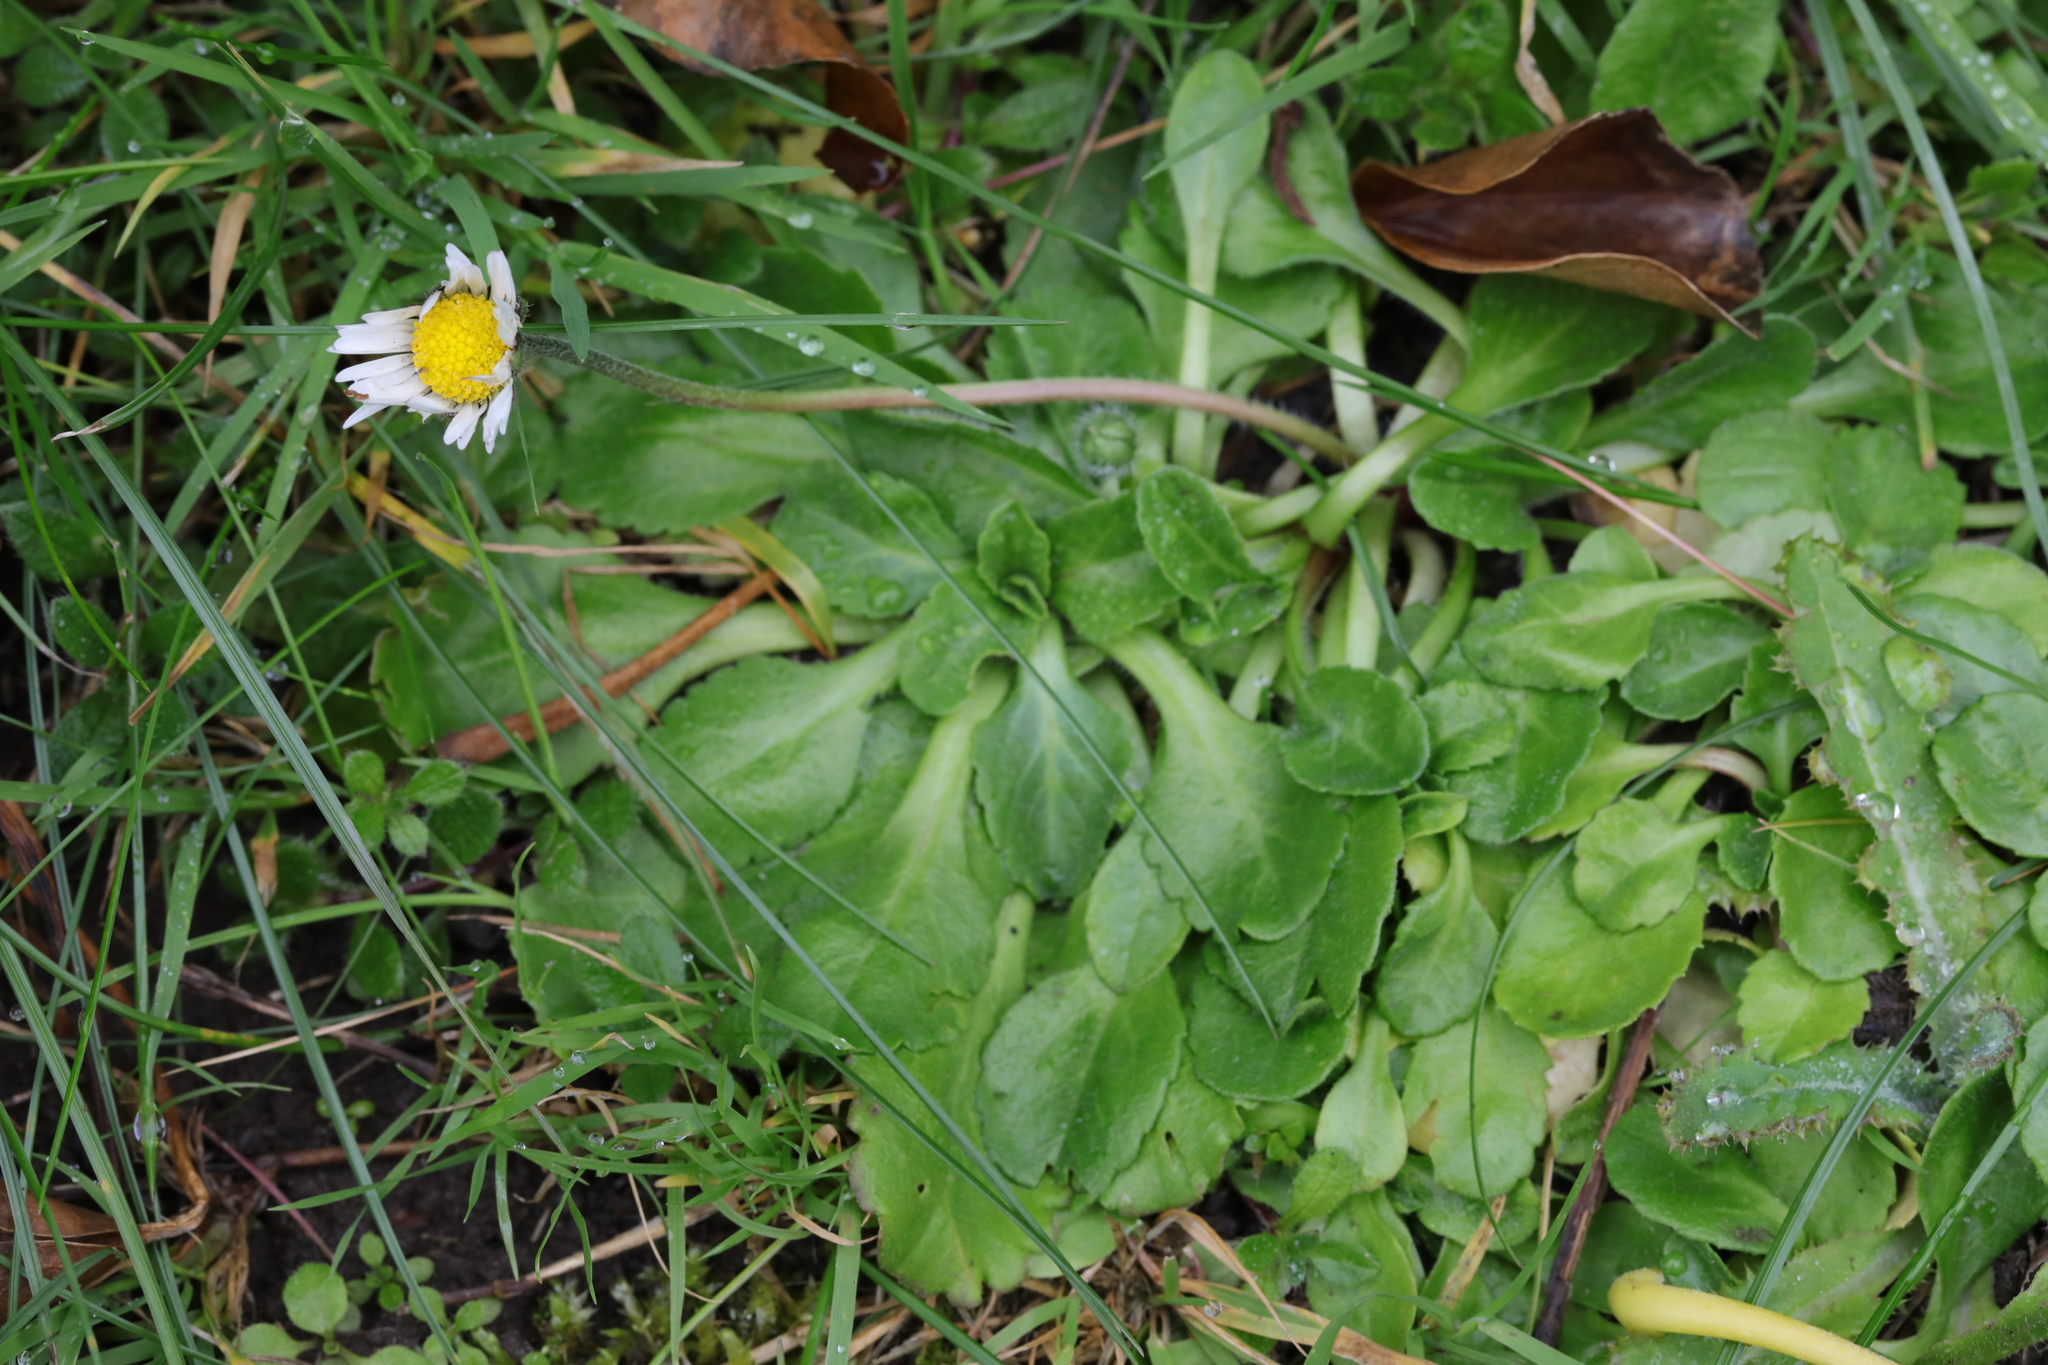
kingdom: Plantae
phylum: Tracheophyta
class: Magnoliopsida
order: Asterales
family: Asteraceae
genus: Bellis
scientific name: Bellis perennis
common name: Lawndaisy
